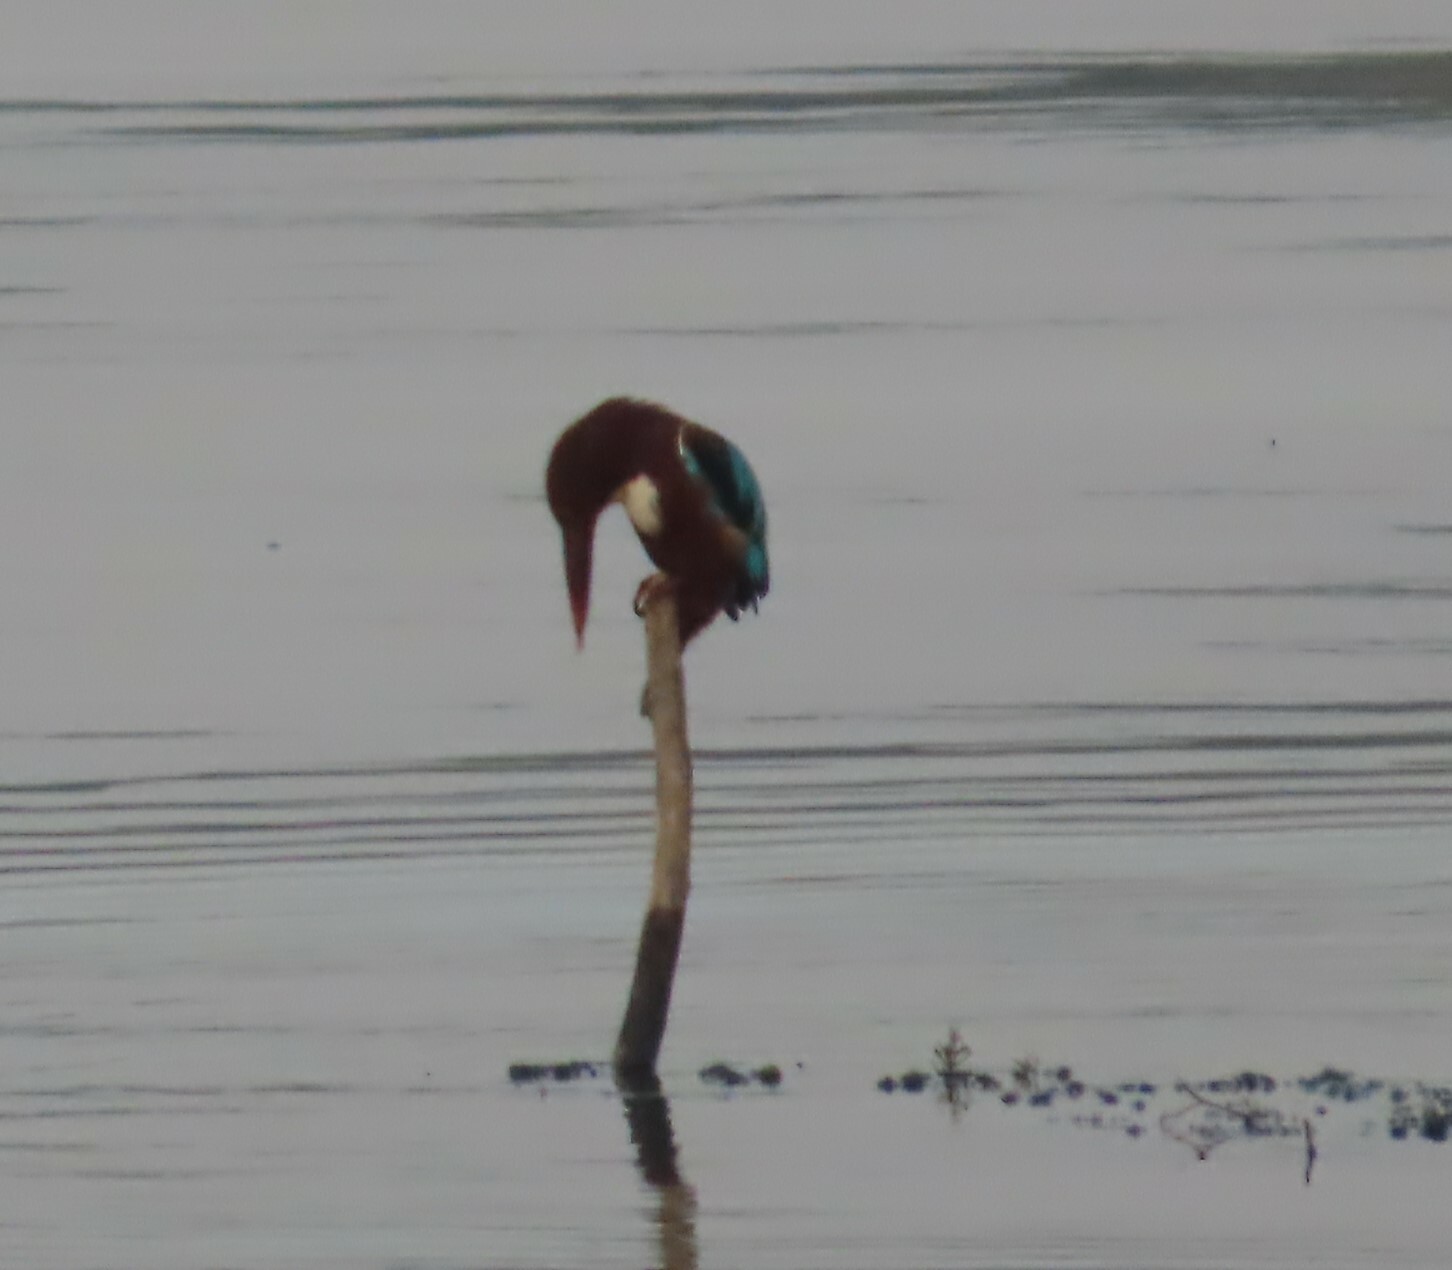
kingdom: Animalia
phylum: Chordata
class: Aves
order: Coraciiformes
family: Alcedinidae
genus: Halcyon
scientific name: Halcyon smyrnensis
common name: White-throated kingfisher
